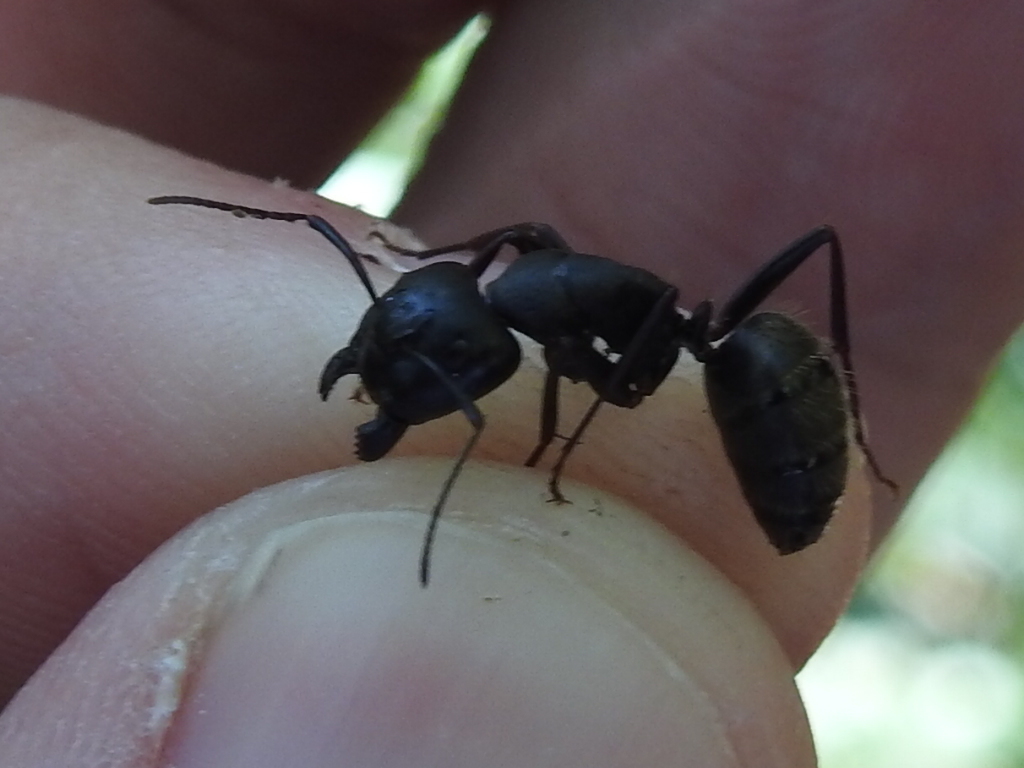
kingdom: Animalia
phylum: Arthropoda
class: Insecta
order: Hymenoptera
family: Formicidae
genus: Camponotus
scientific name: Camponotus pennsylvanicus
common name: Black carpenter ant
